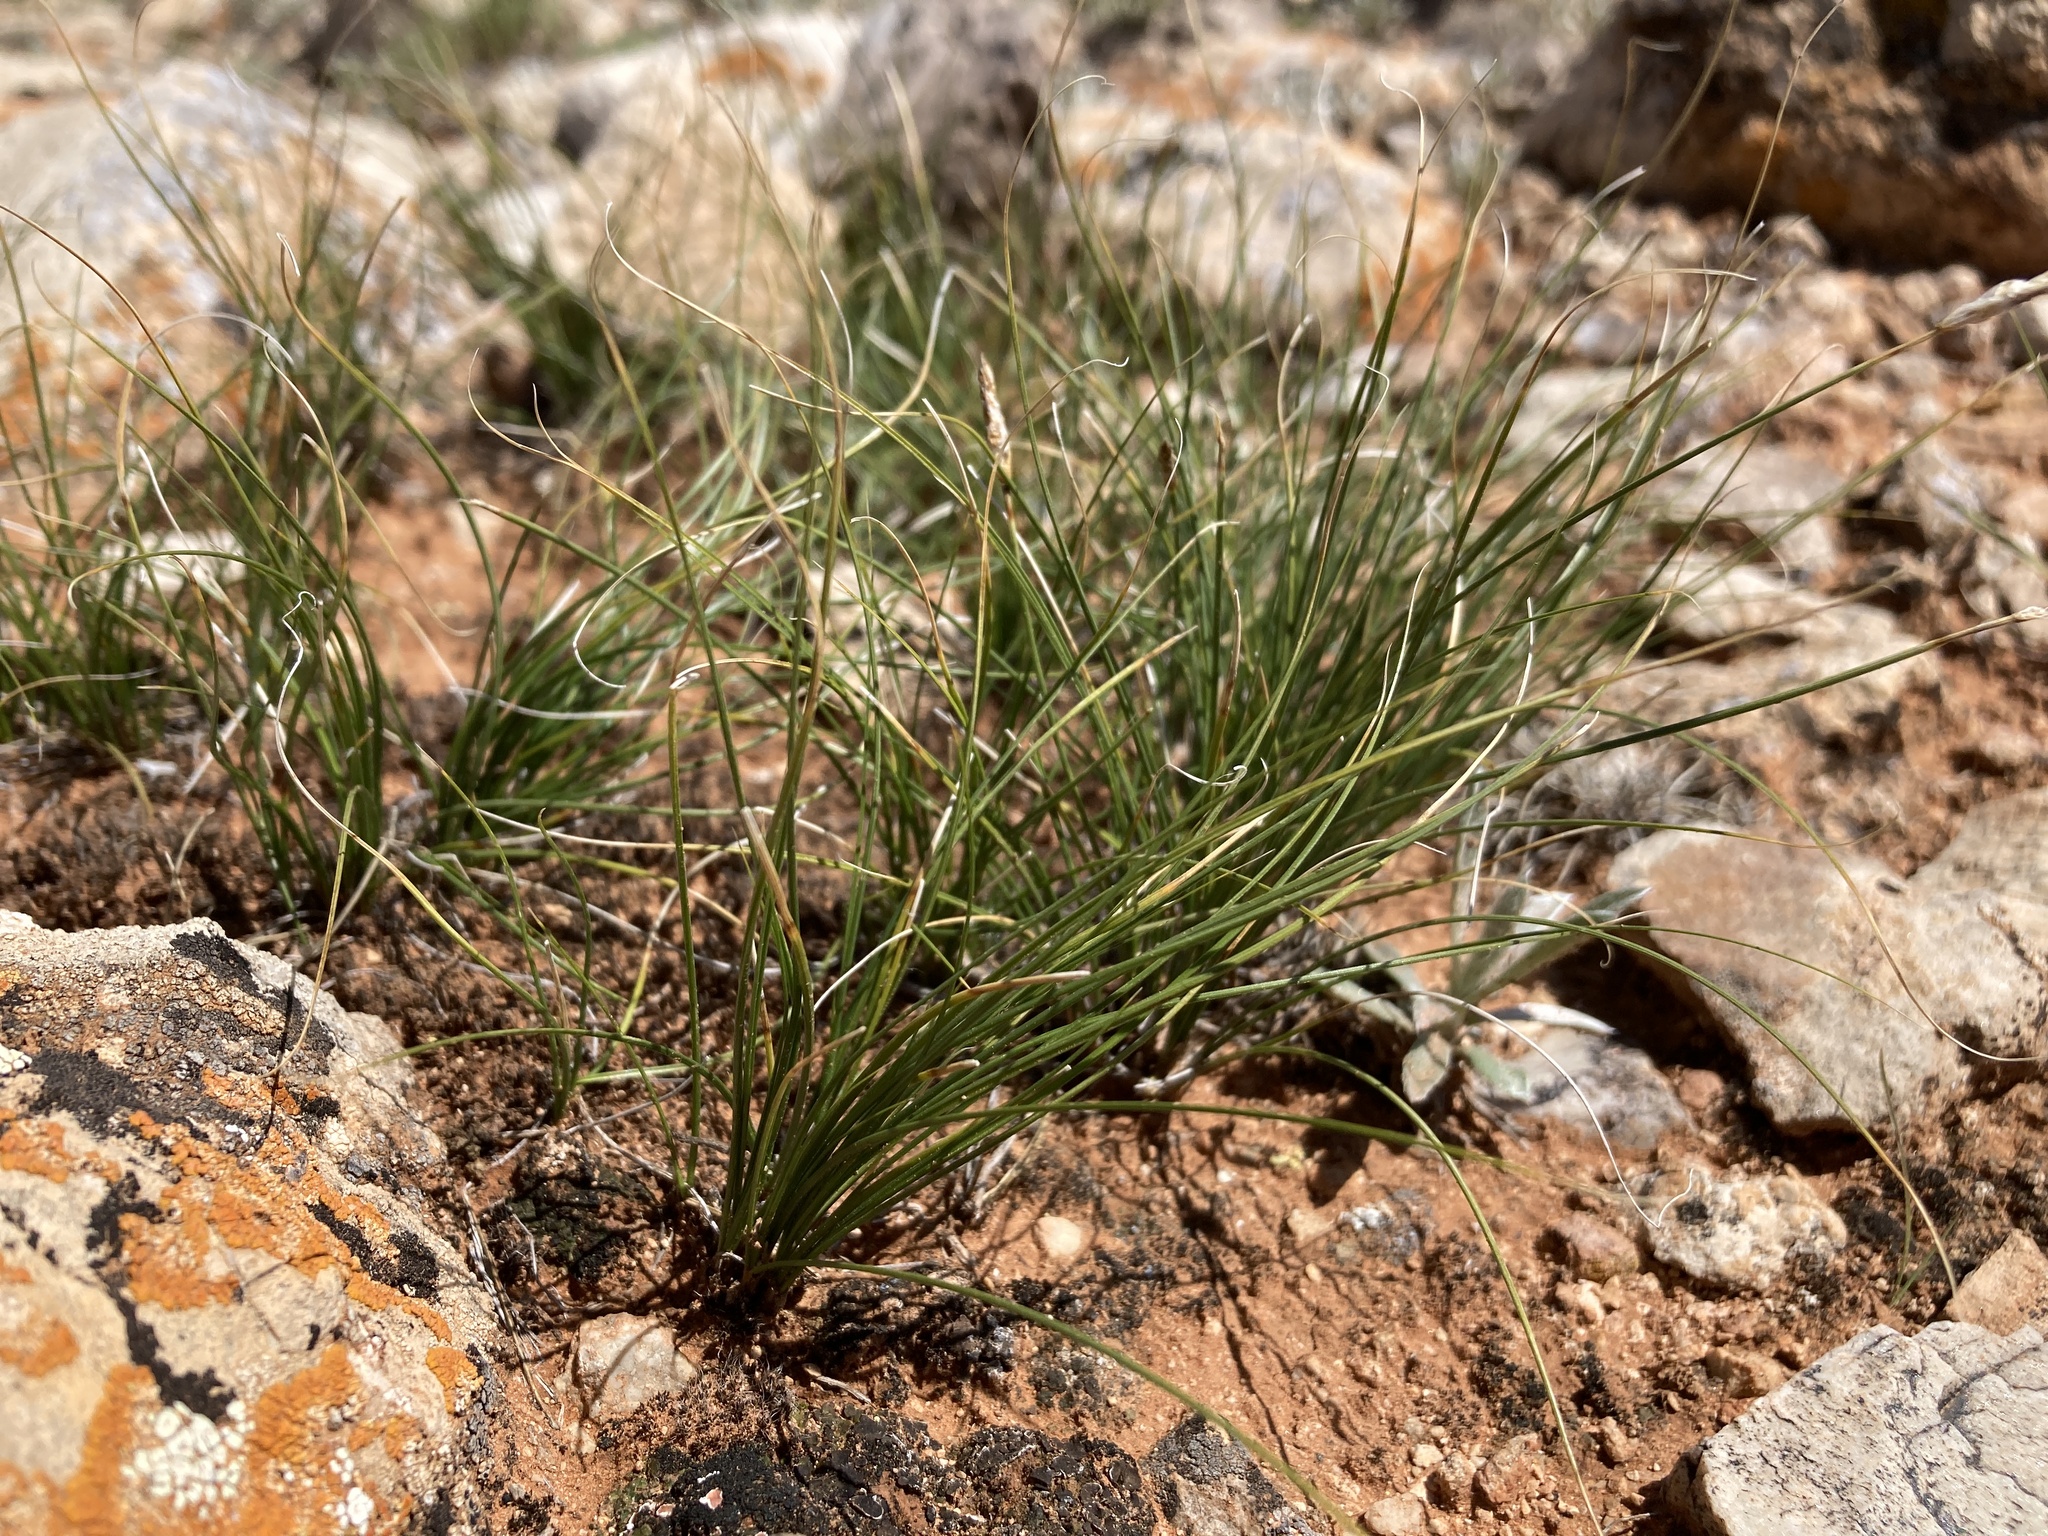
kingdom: Plantae
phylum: Tracheophyta
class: Liliopsida
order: Poales
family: Cyperaceae
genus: Carex
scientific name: Carex filifolia
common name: Threadleaf sedge
